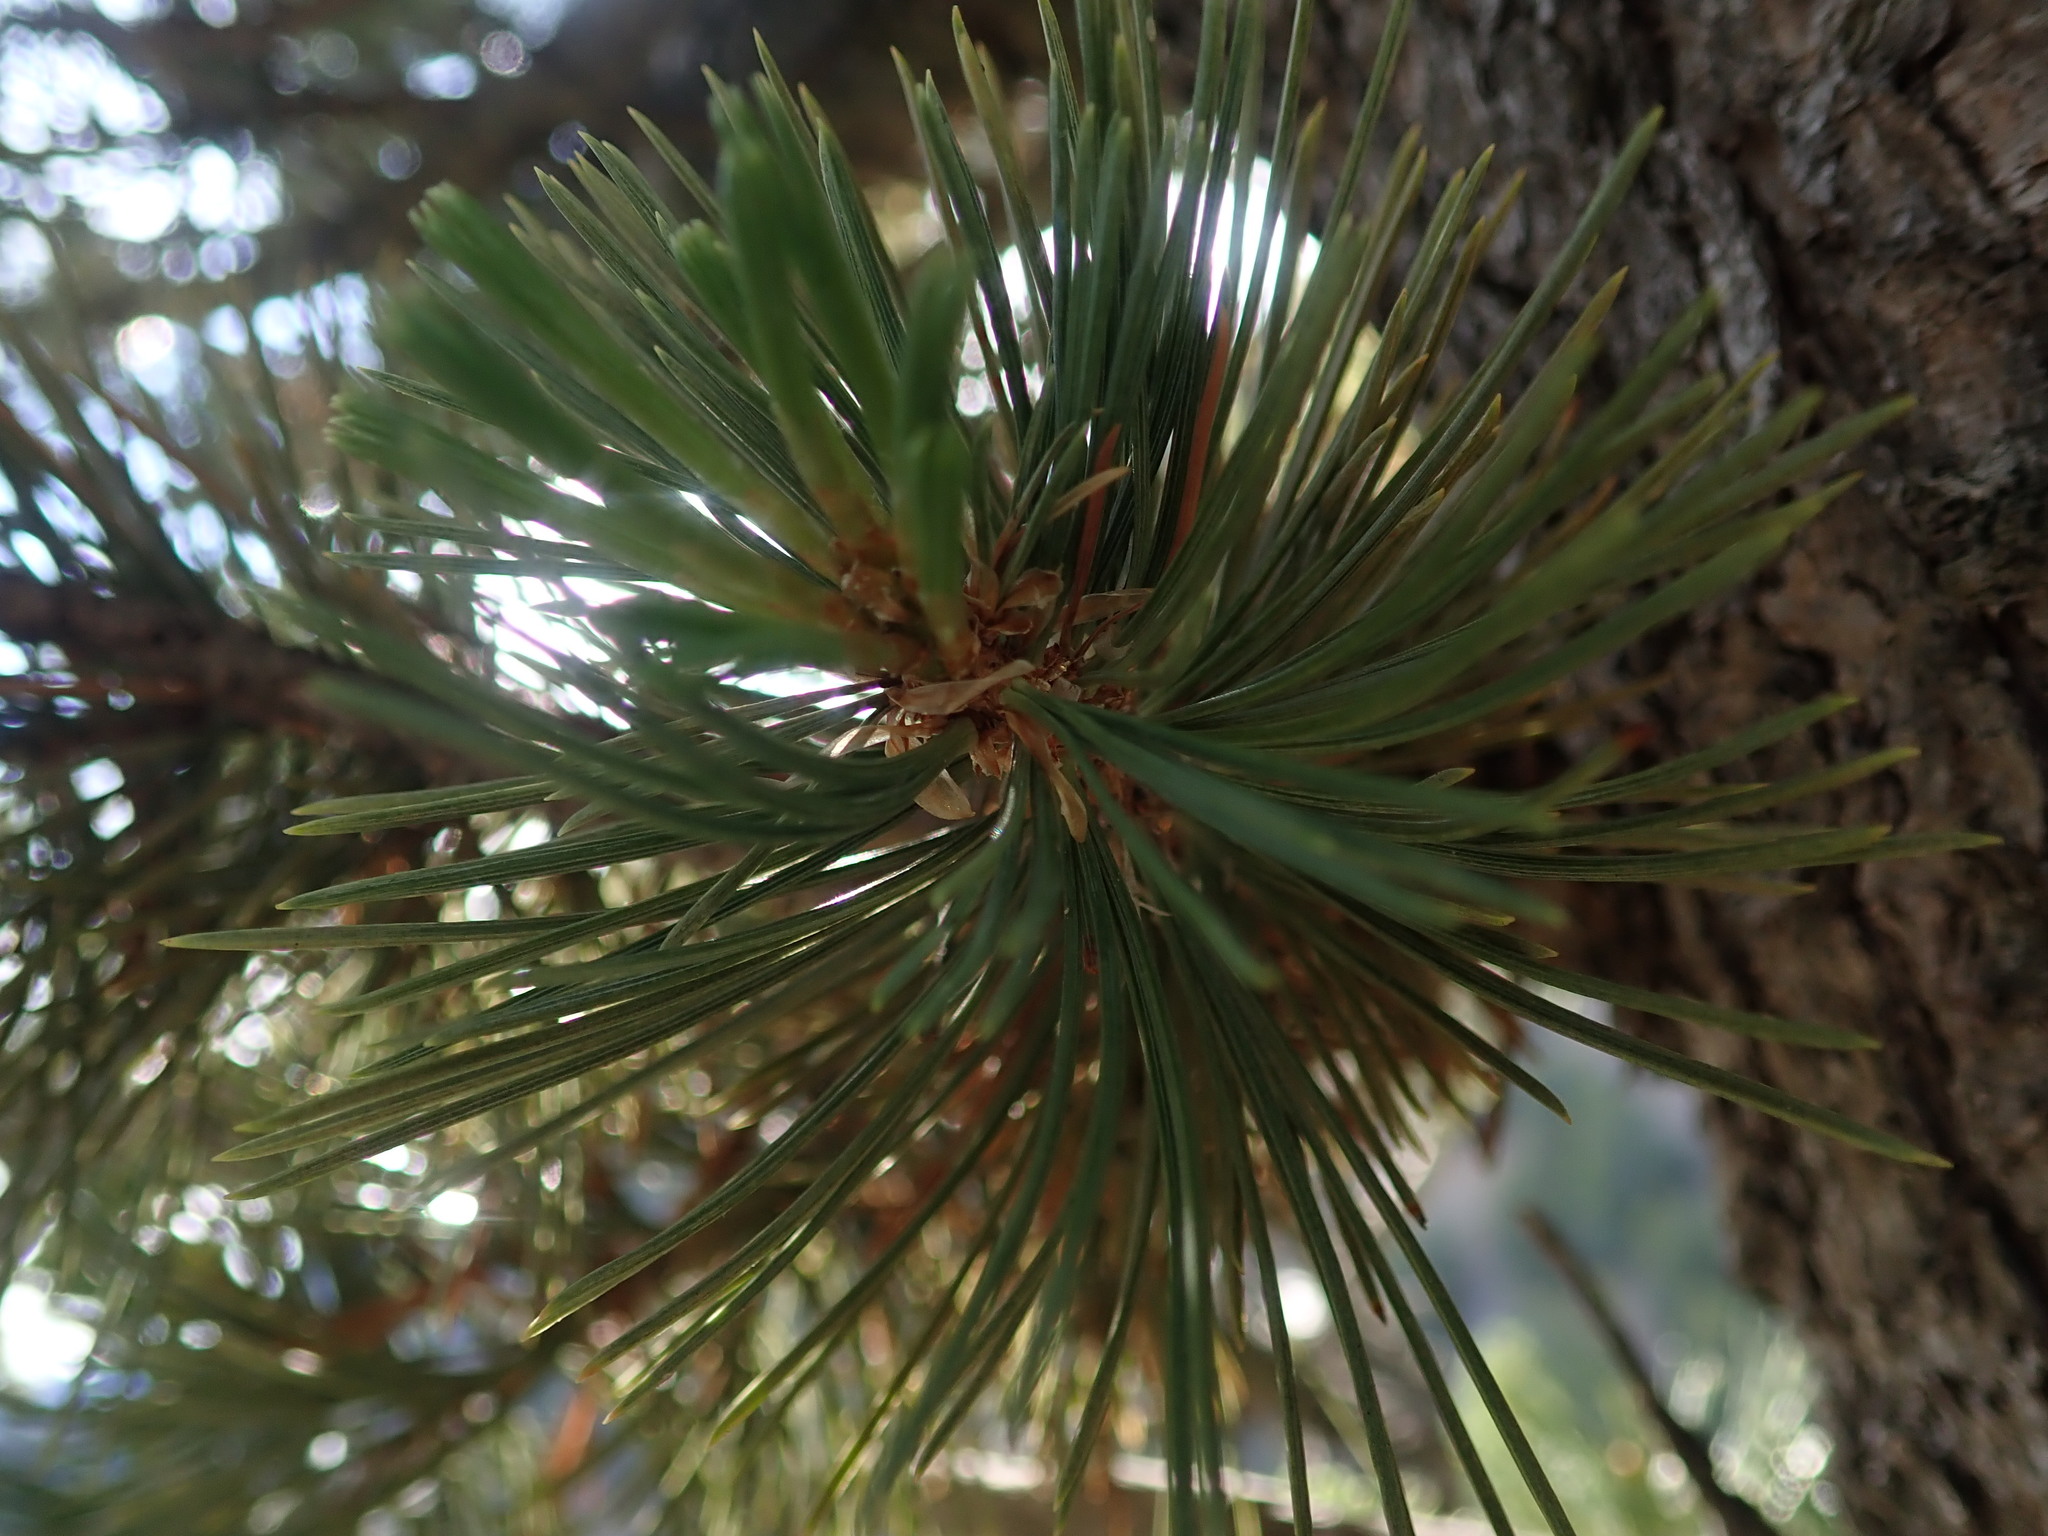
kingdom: Plantae
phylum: Tracheophyta
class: Pinopsida
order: Pinales
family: Pinaceae
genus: Pinus
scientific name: Pinus flexilis
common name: Limber pine
